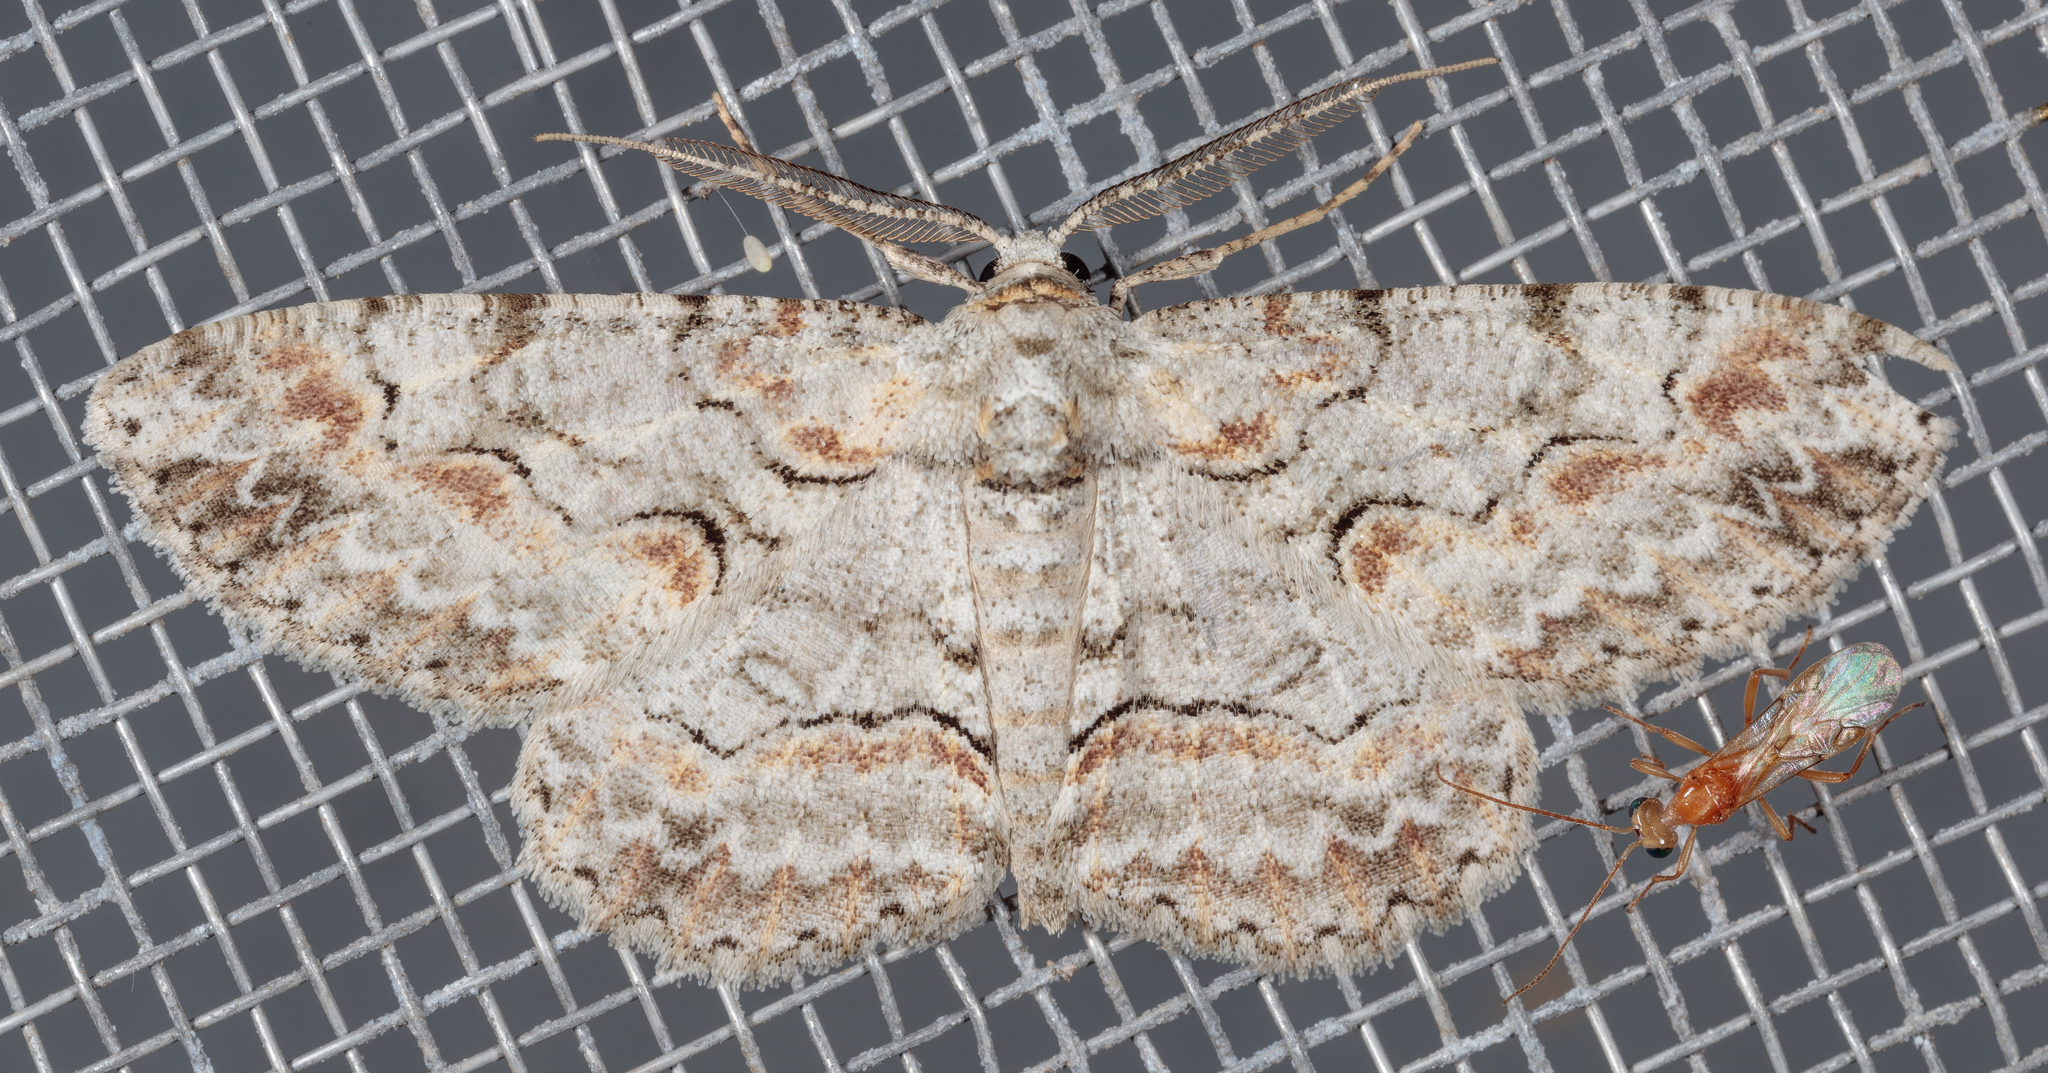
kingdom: Animalia
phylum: Arthropoda
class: Insecta
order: Lepidoptera
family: Geometridae
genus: Iridopsis
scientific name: Iridopsis defectaria
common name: Brown-shaded gray
